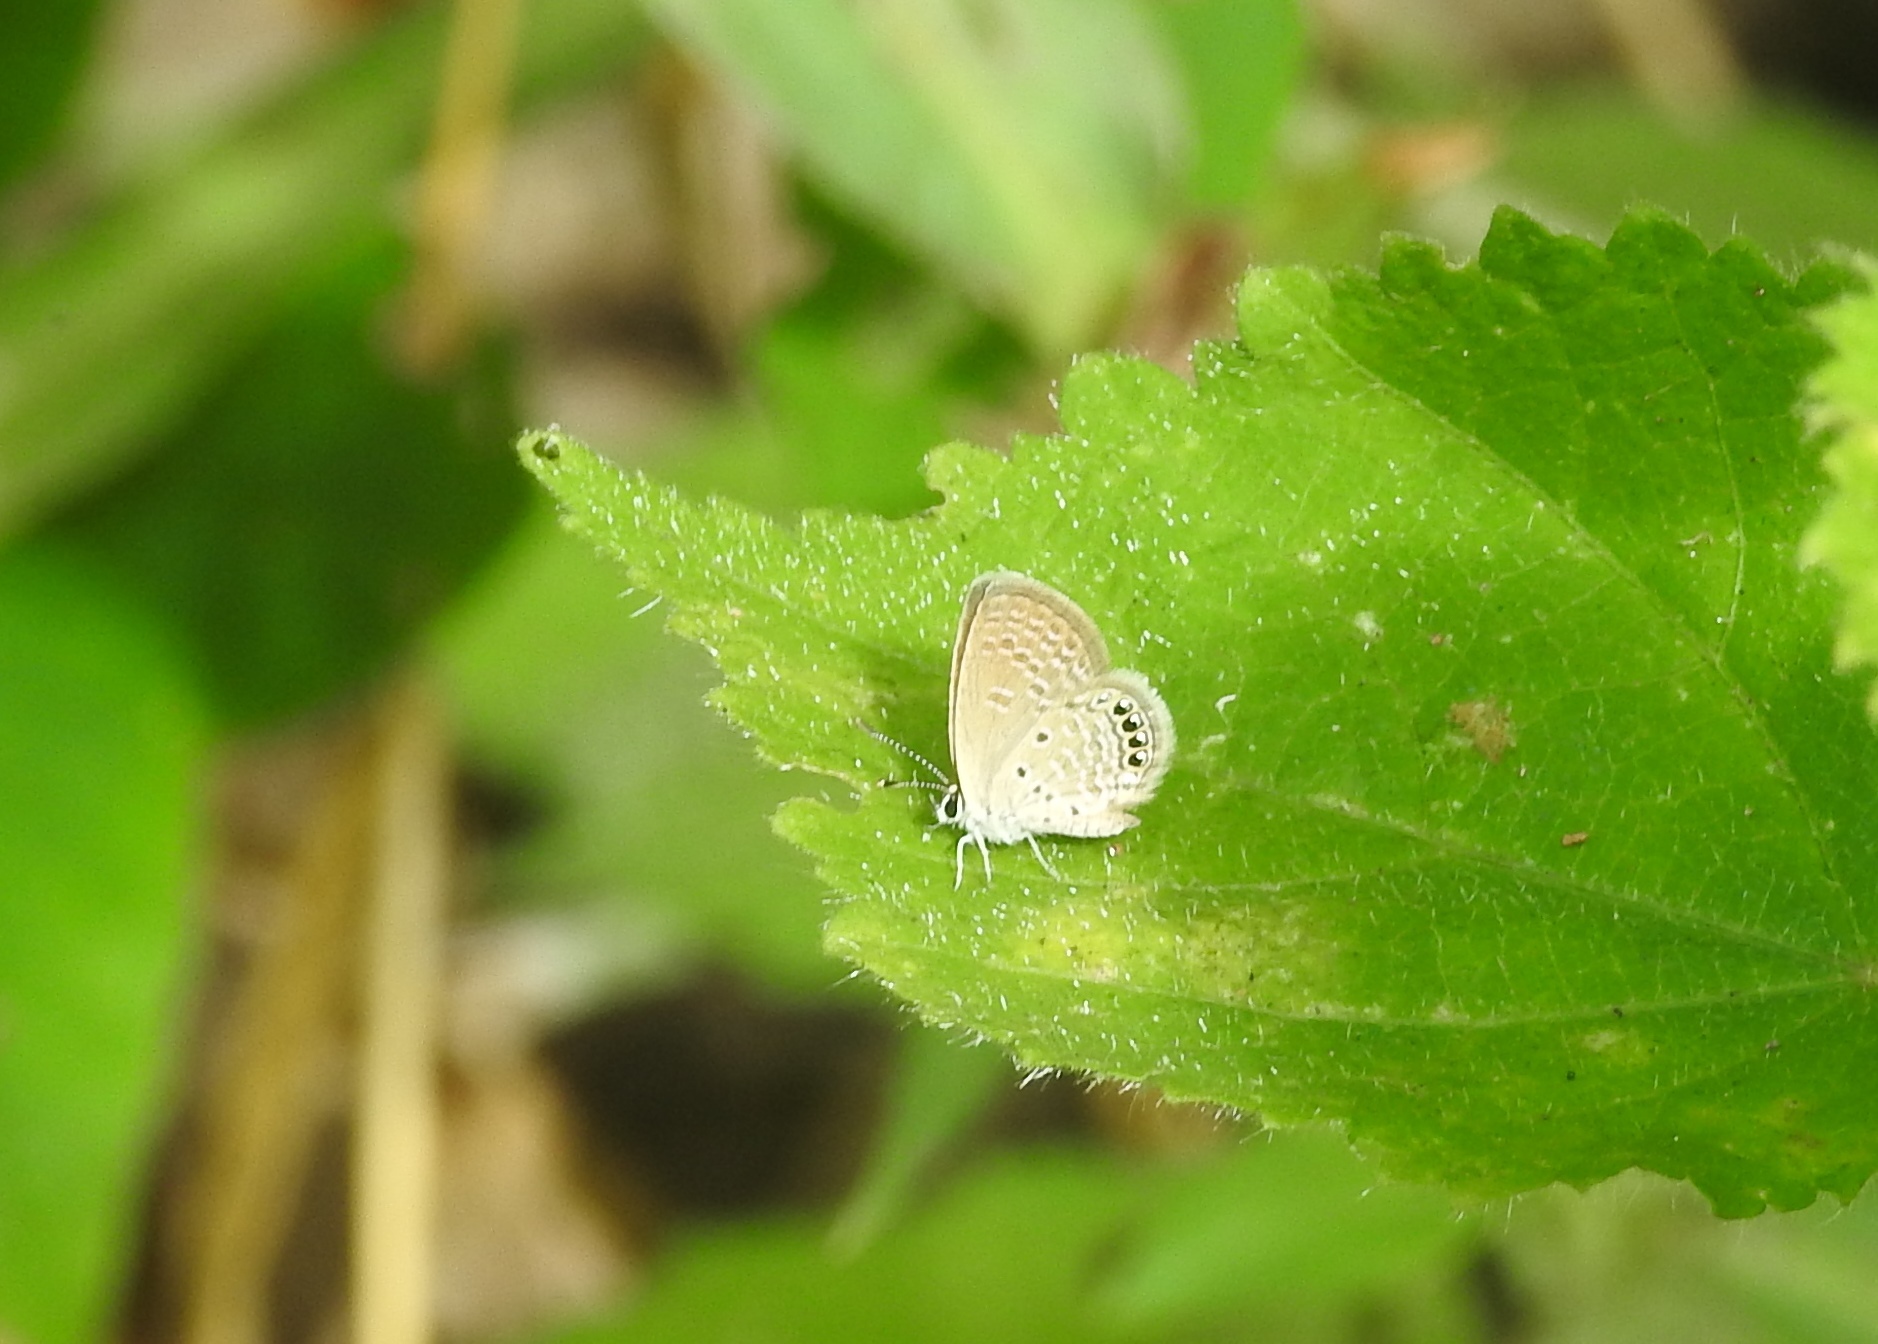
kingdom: Animalia
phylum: Arthropoda
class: Insecta
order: Lepidoptera
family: Lycaenidae
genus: Freyeria
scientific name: Freyeria putli
